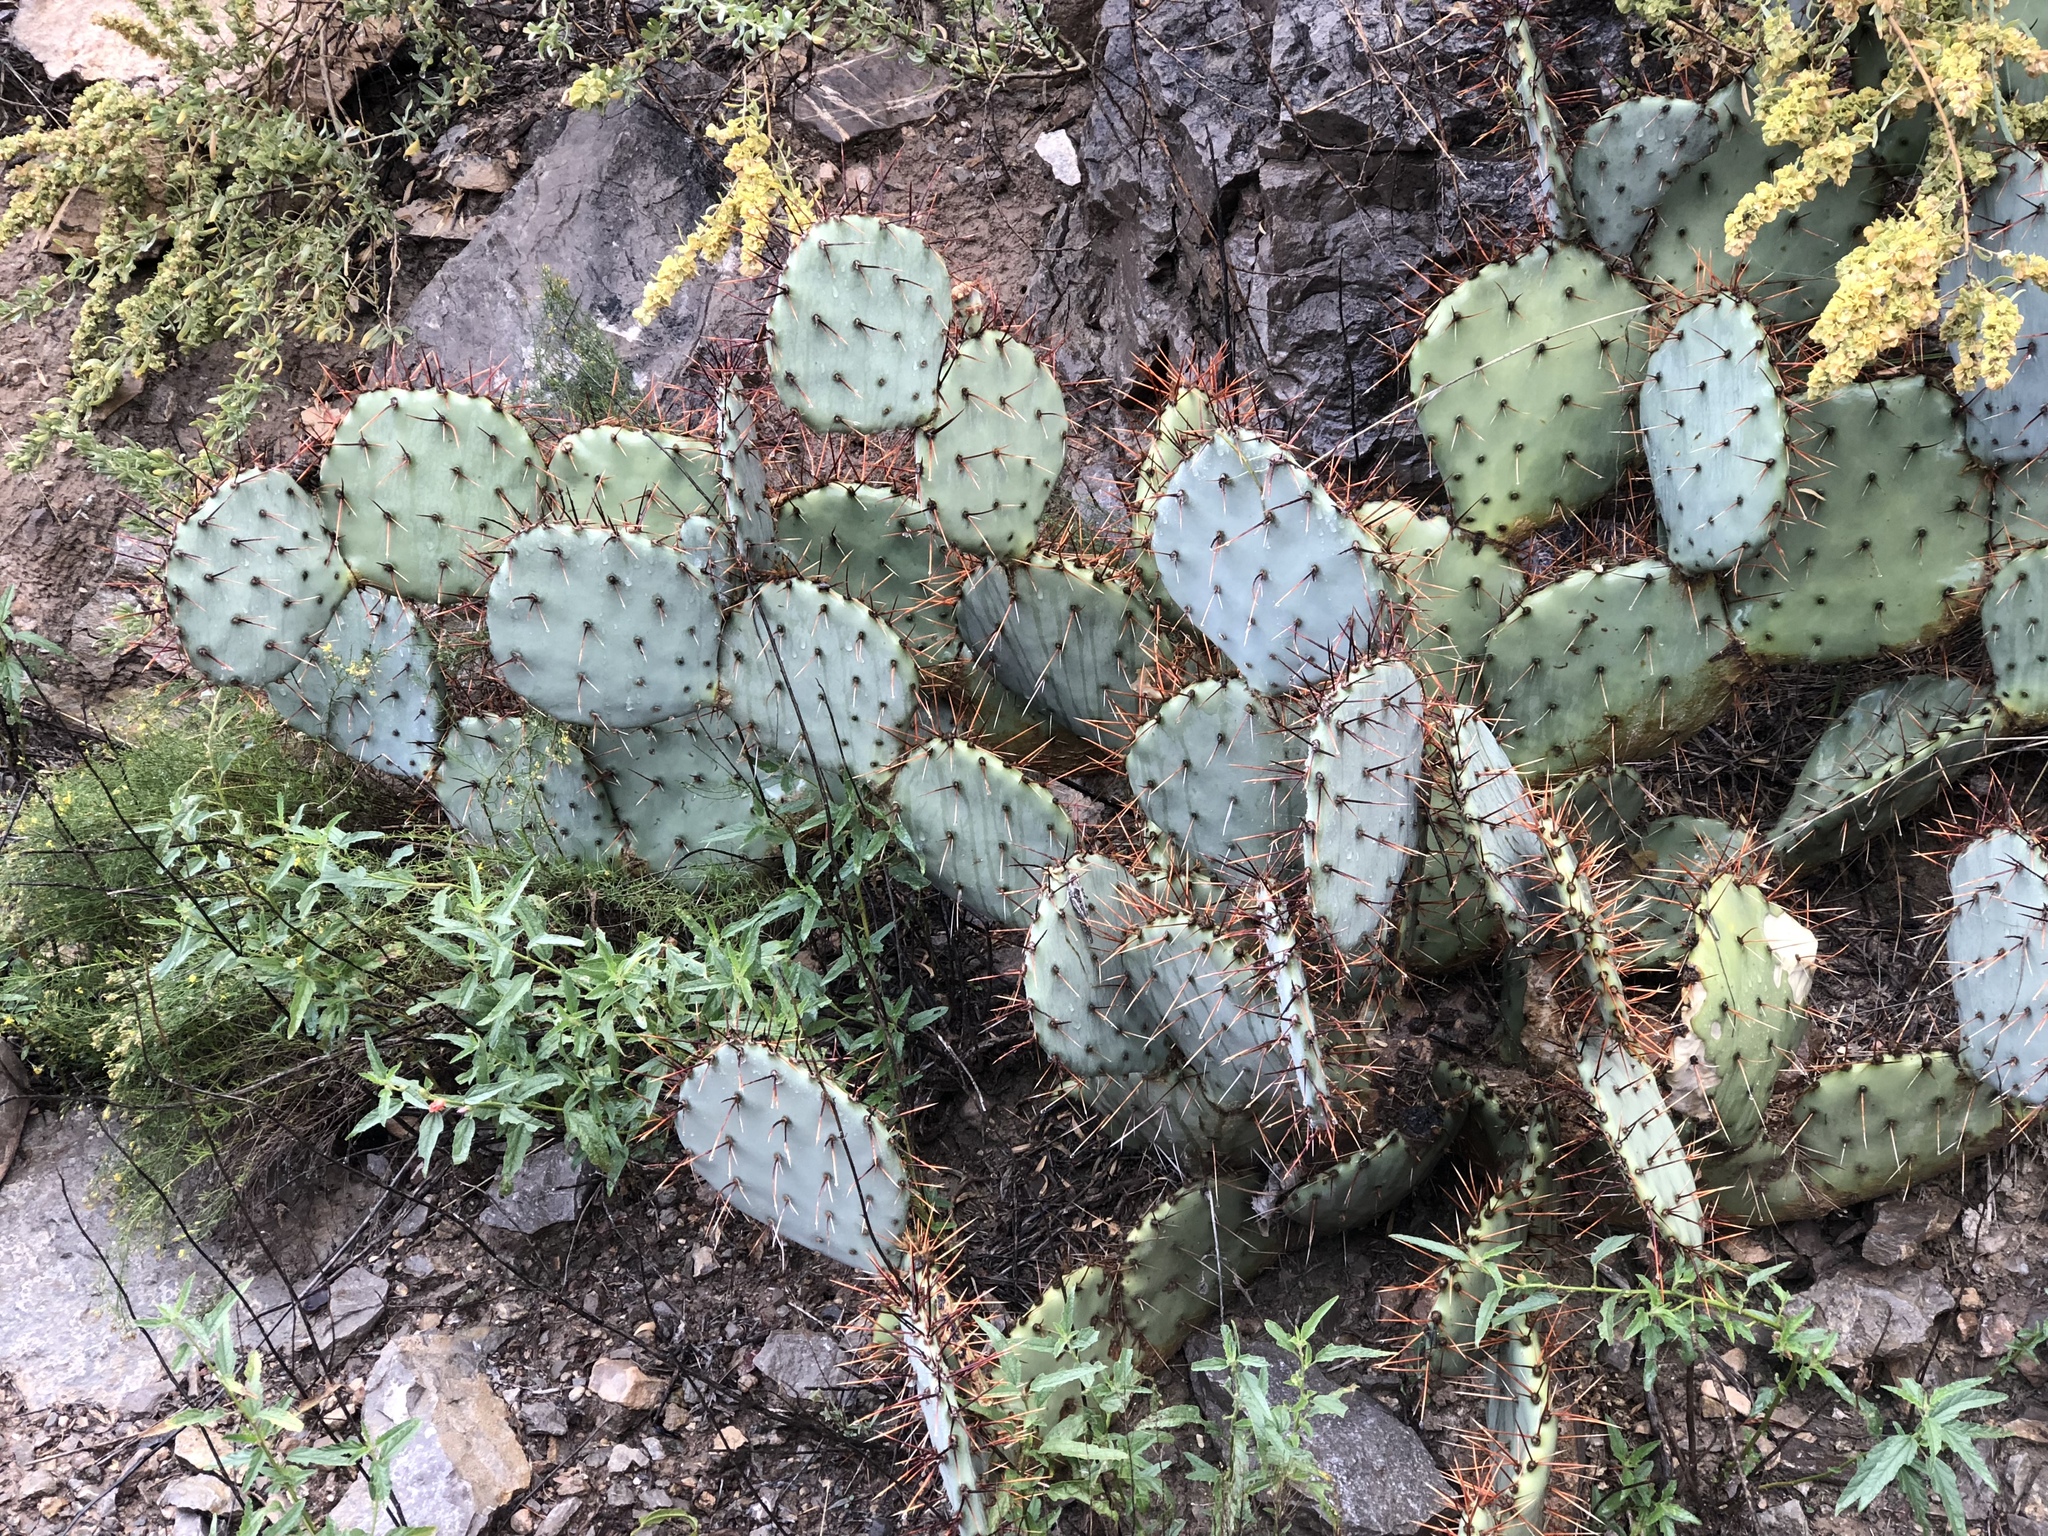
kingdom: Plantae
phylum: Tracheophyta
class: Magnoliopsida
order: Caryophyllales
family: Cactaceae
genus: Opuntia
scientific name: Opuntia macrocentra
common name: Purple prickly-pear
